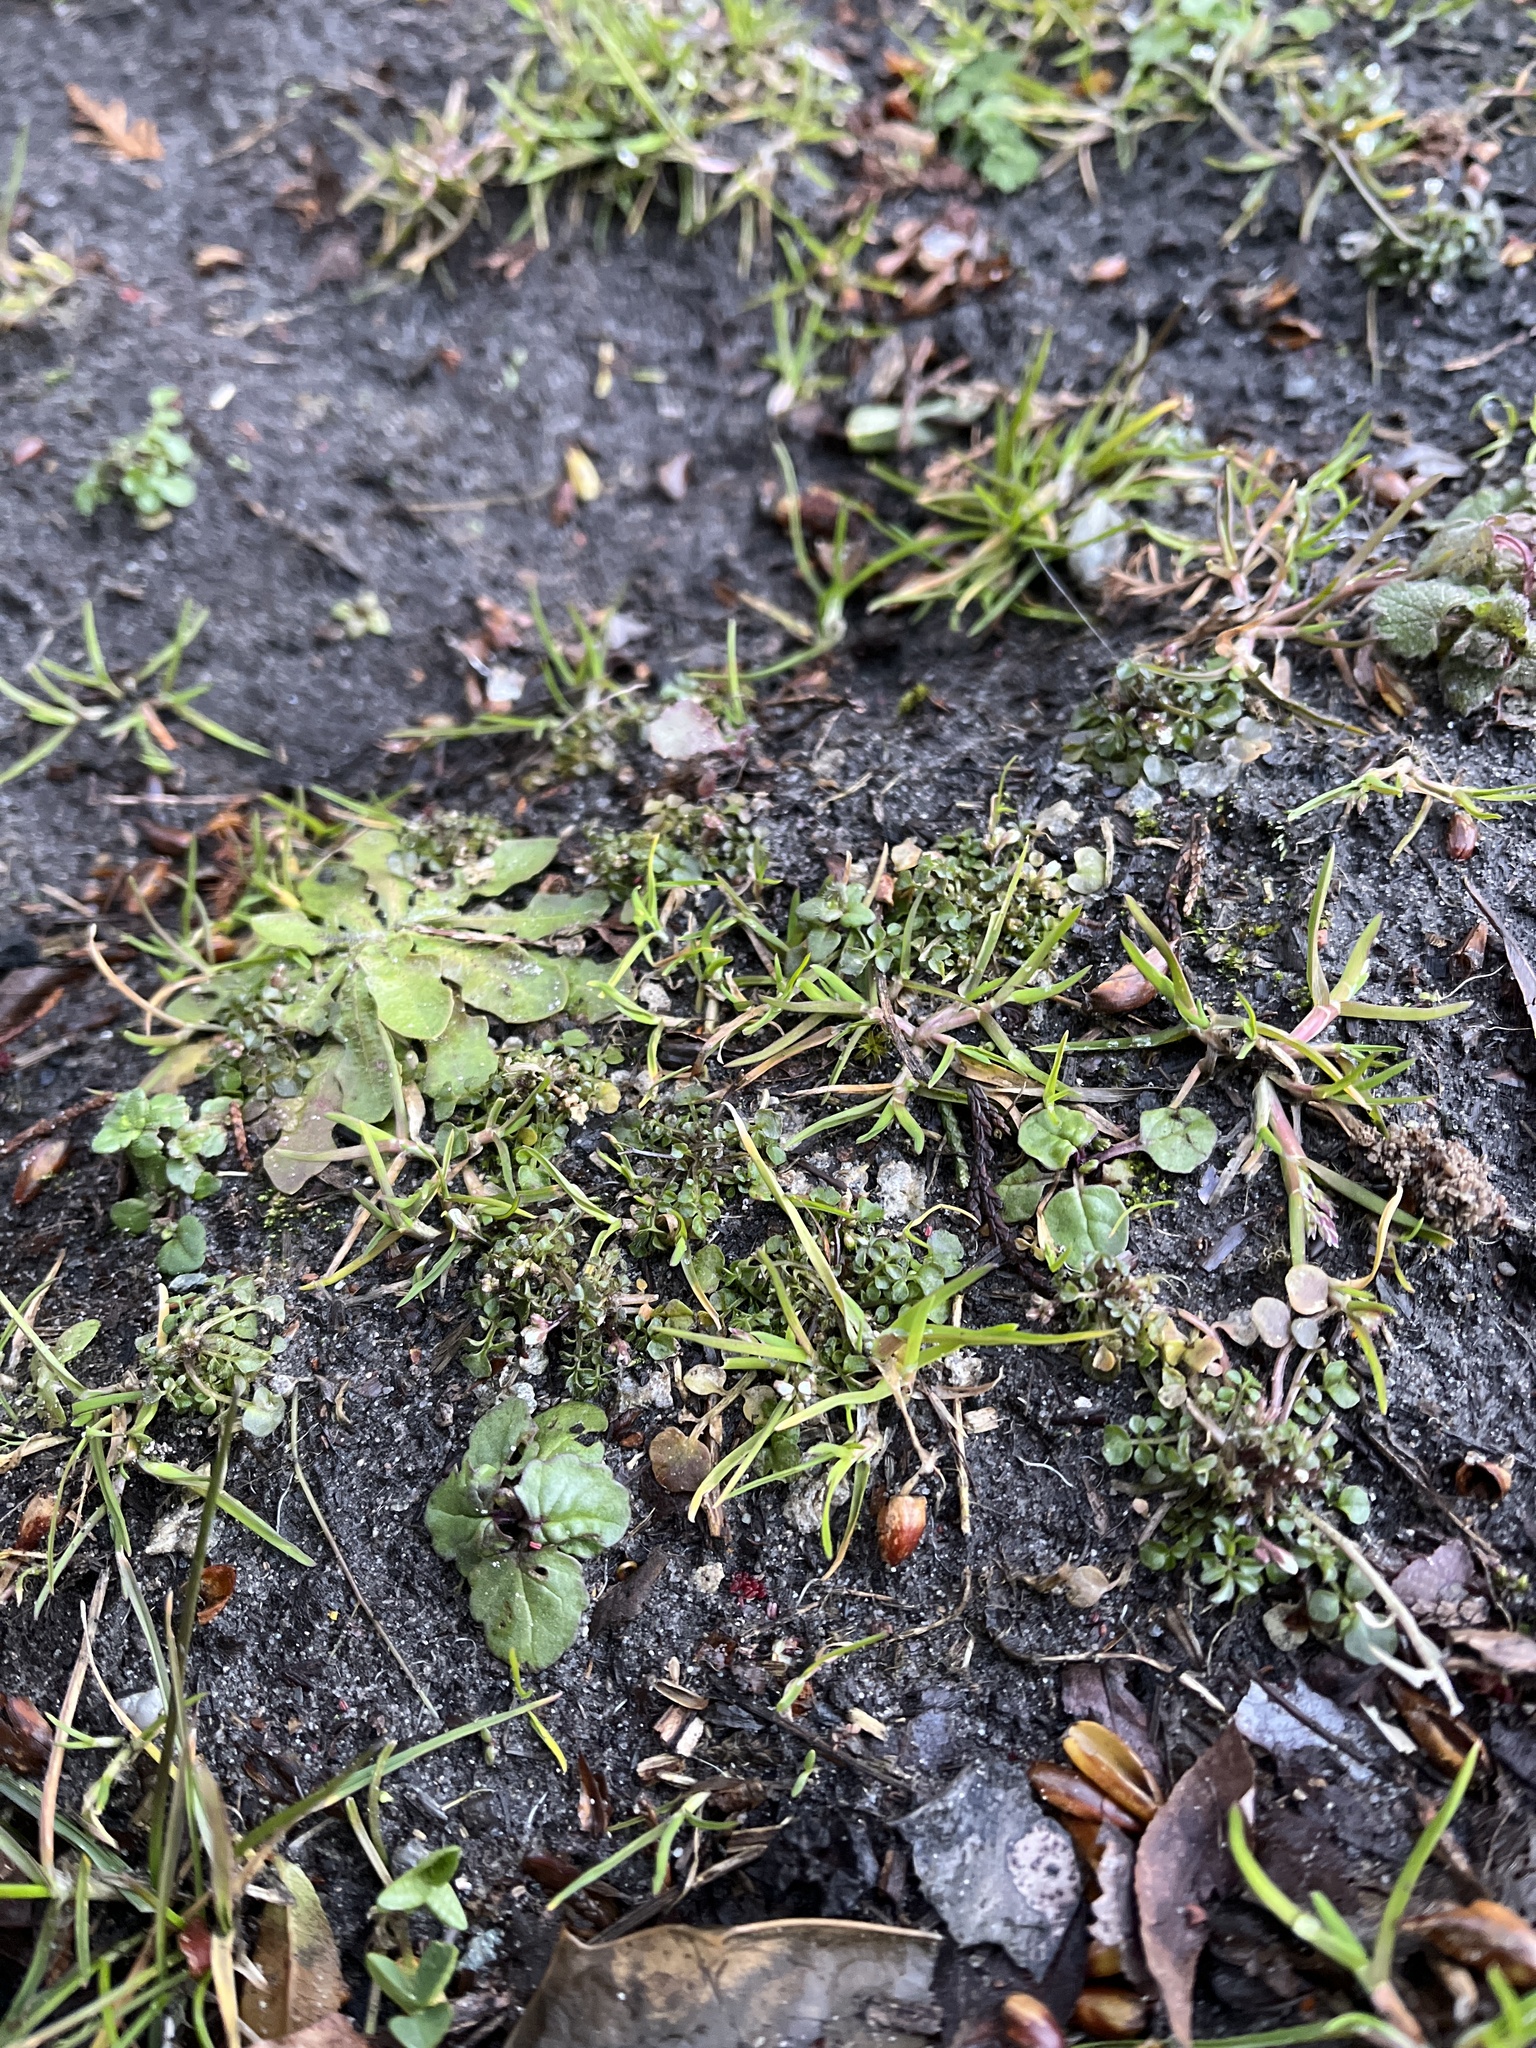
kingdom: Plantae
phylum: Tracheophyta
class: Magnoliopsida
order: Brassicales
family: Brassicaceae
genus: Cardamine
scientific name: Cardamine hirsuta
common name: Hairy bittercress
